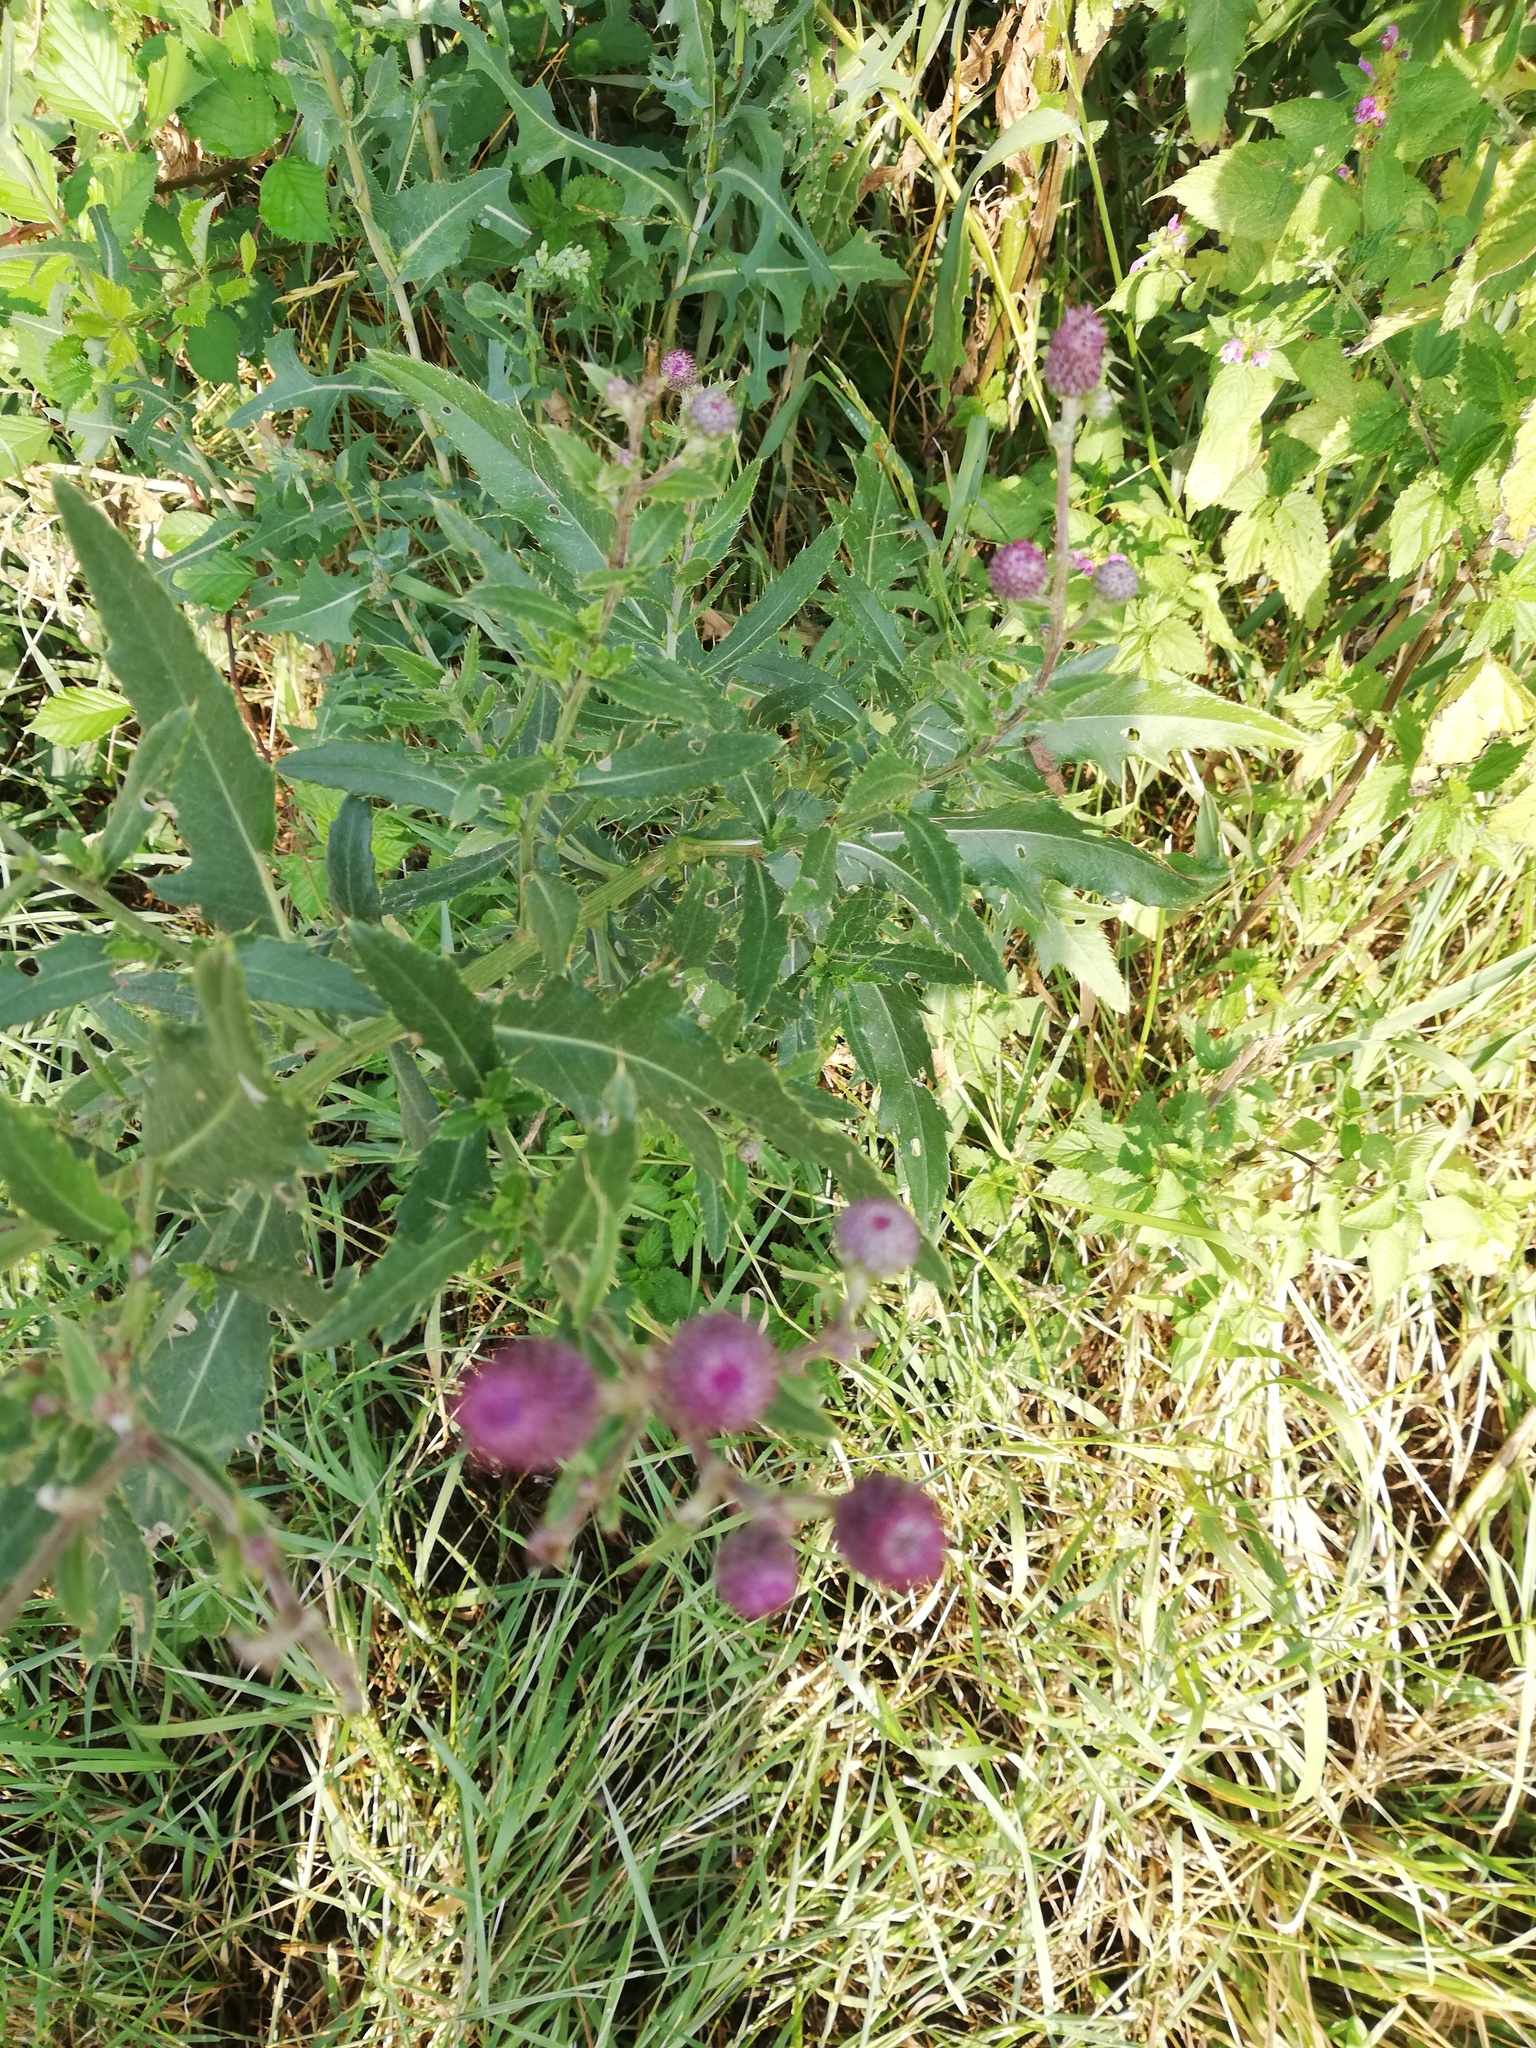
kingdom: Plantae
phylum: Tracheophyta
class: Magnoliopsida
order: Asterales
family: Asteraceae
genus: Cirsium
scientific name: Cirsium arvense
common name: Creeping thistle
